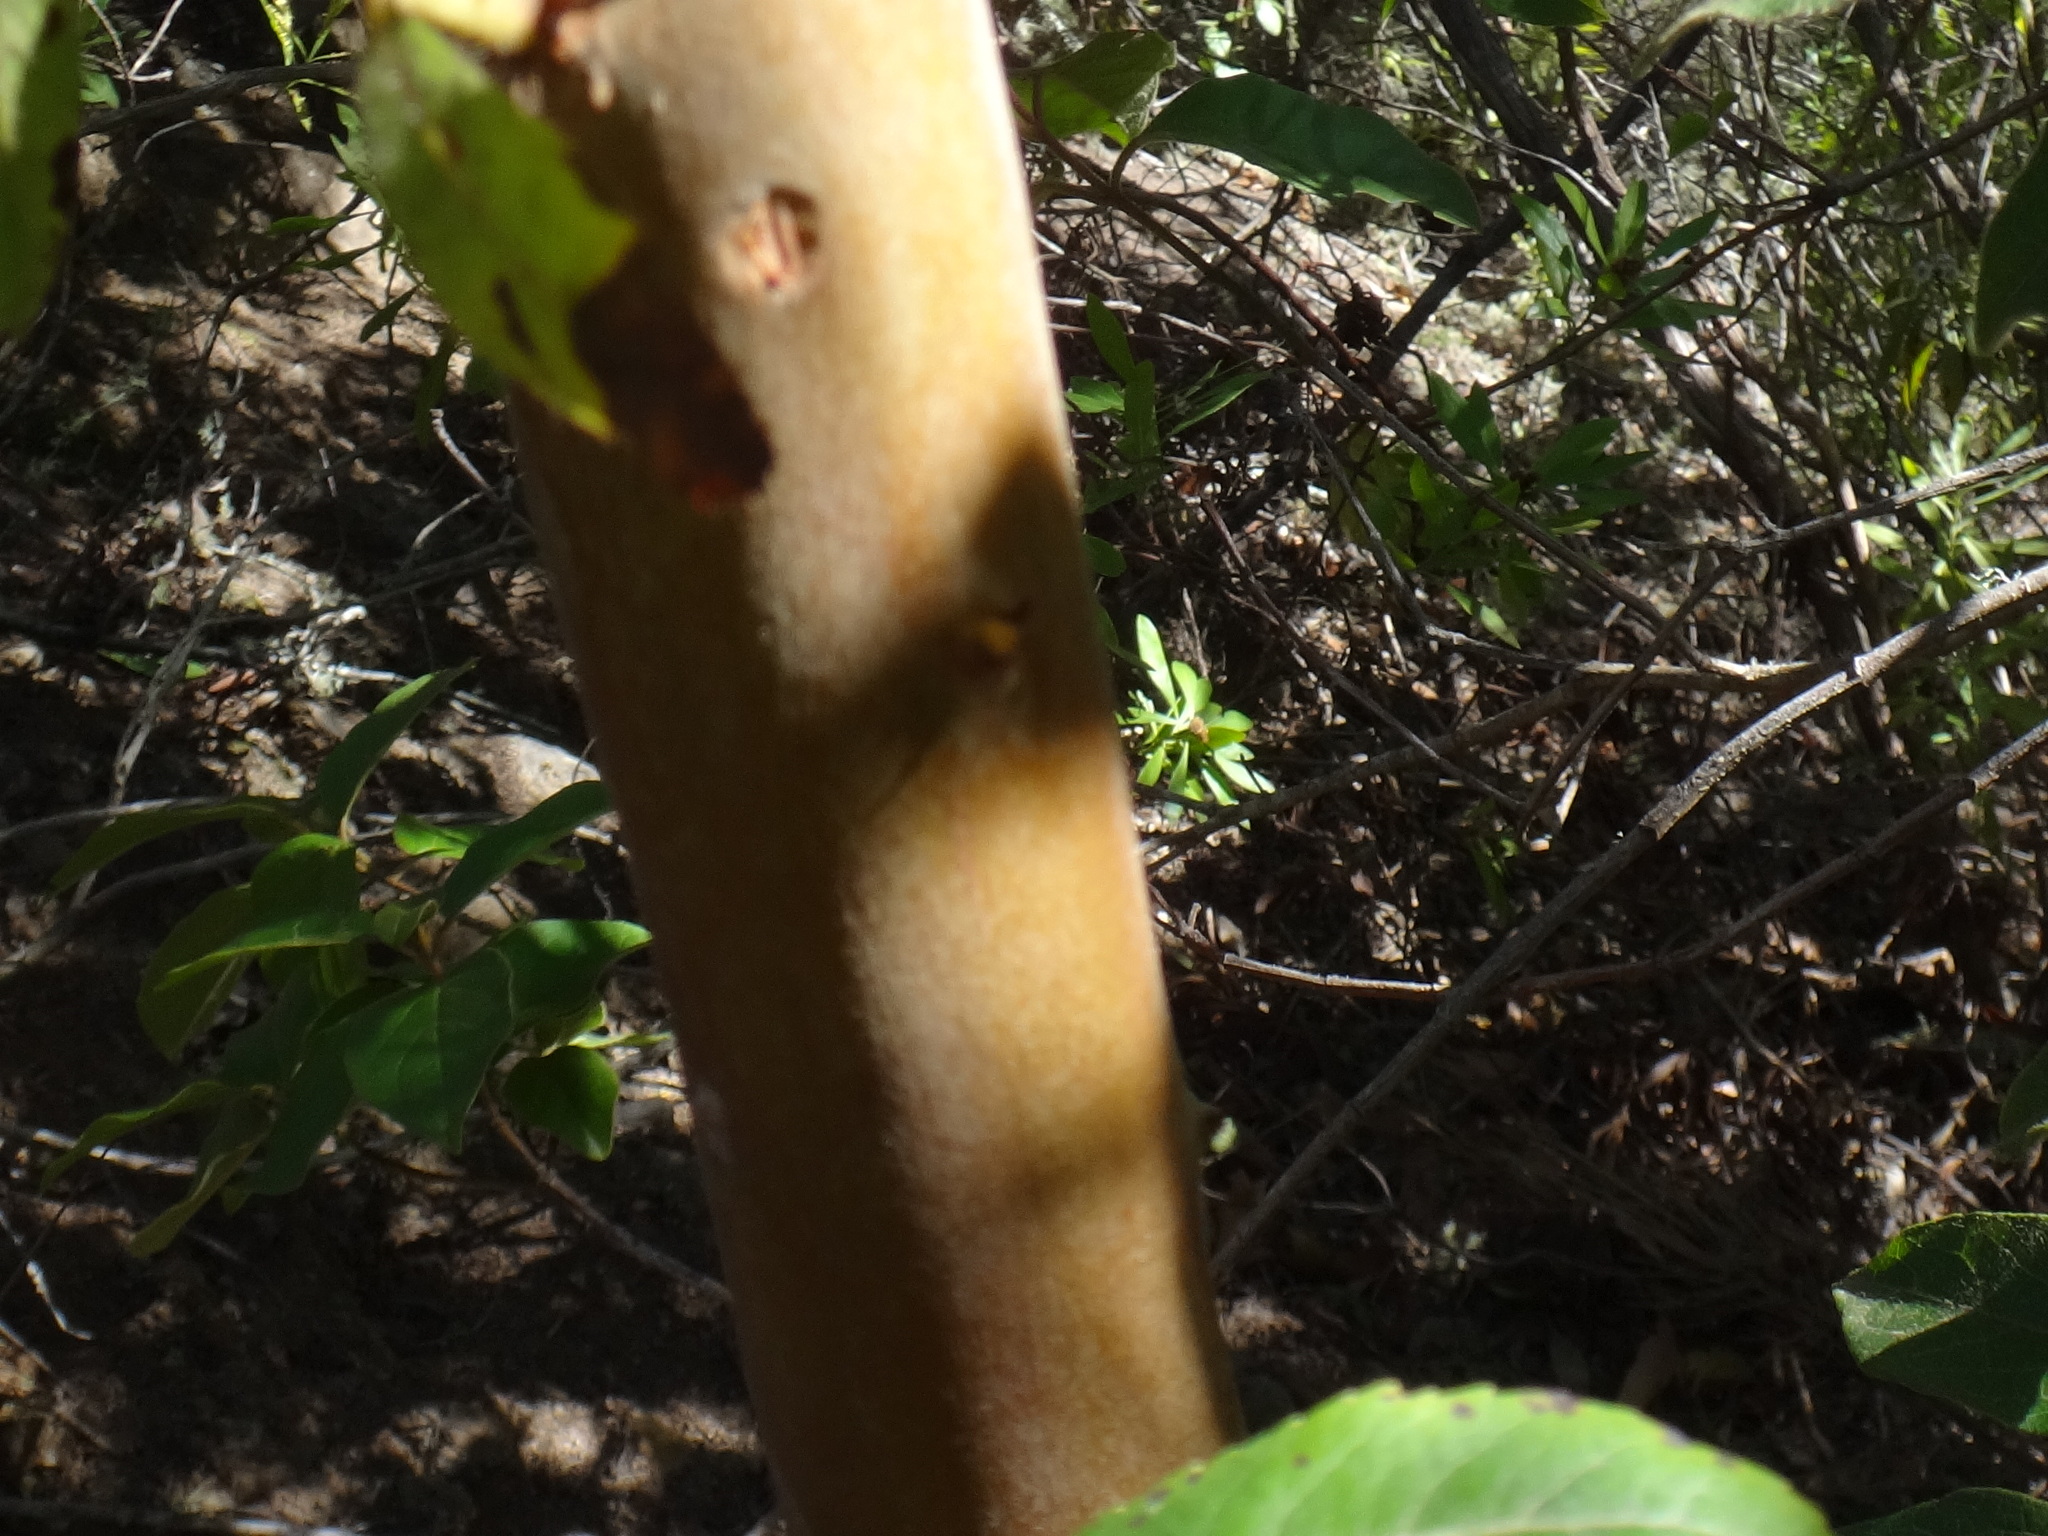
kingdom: Plantae
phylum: Tracheophyta
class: Magnoliopsida
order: Ericales
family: Ericaceae
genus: Arbutus
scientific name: Arbutus canariensis
